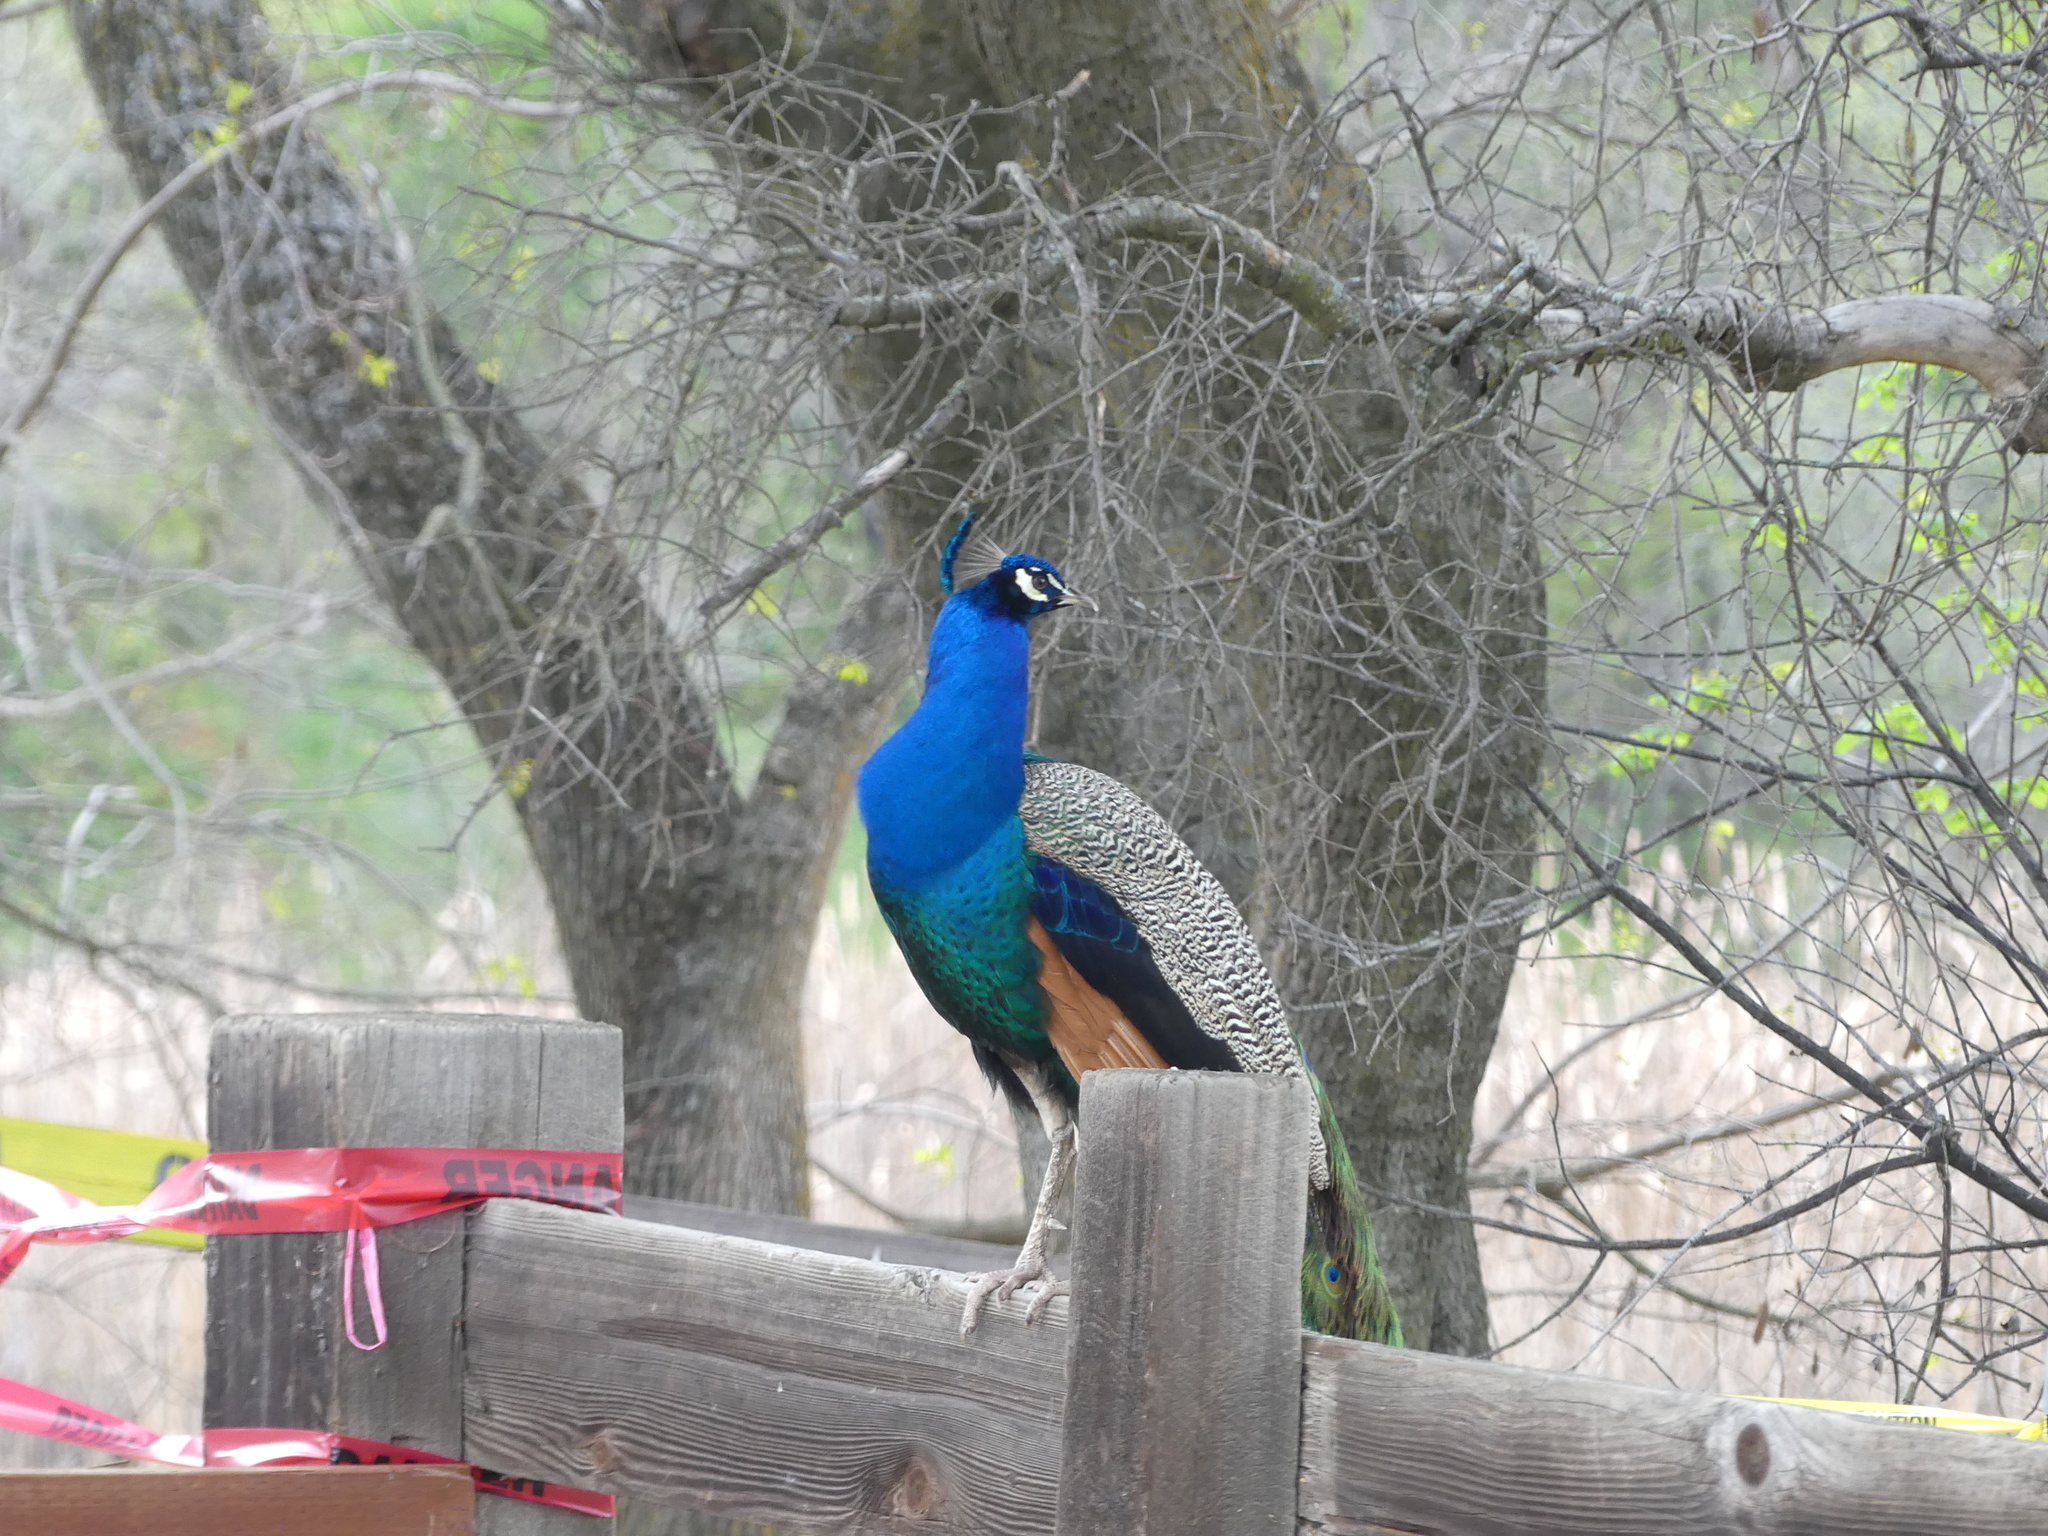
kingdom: Animalia
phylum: Chordata
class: Aves
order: Galliformes
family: Phasianidae
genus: Pavo
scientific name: Pavo cristatus
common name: Indian peafowl
